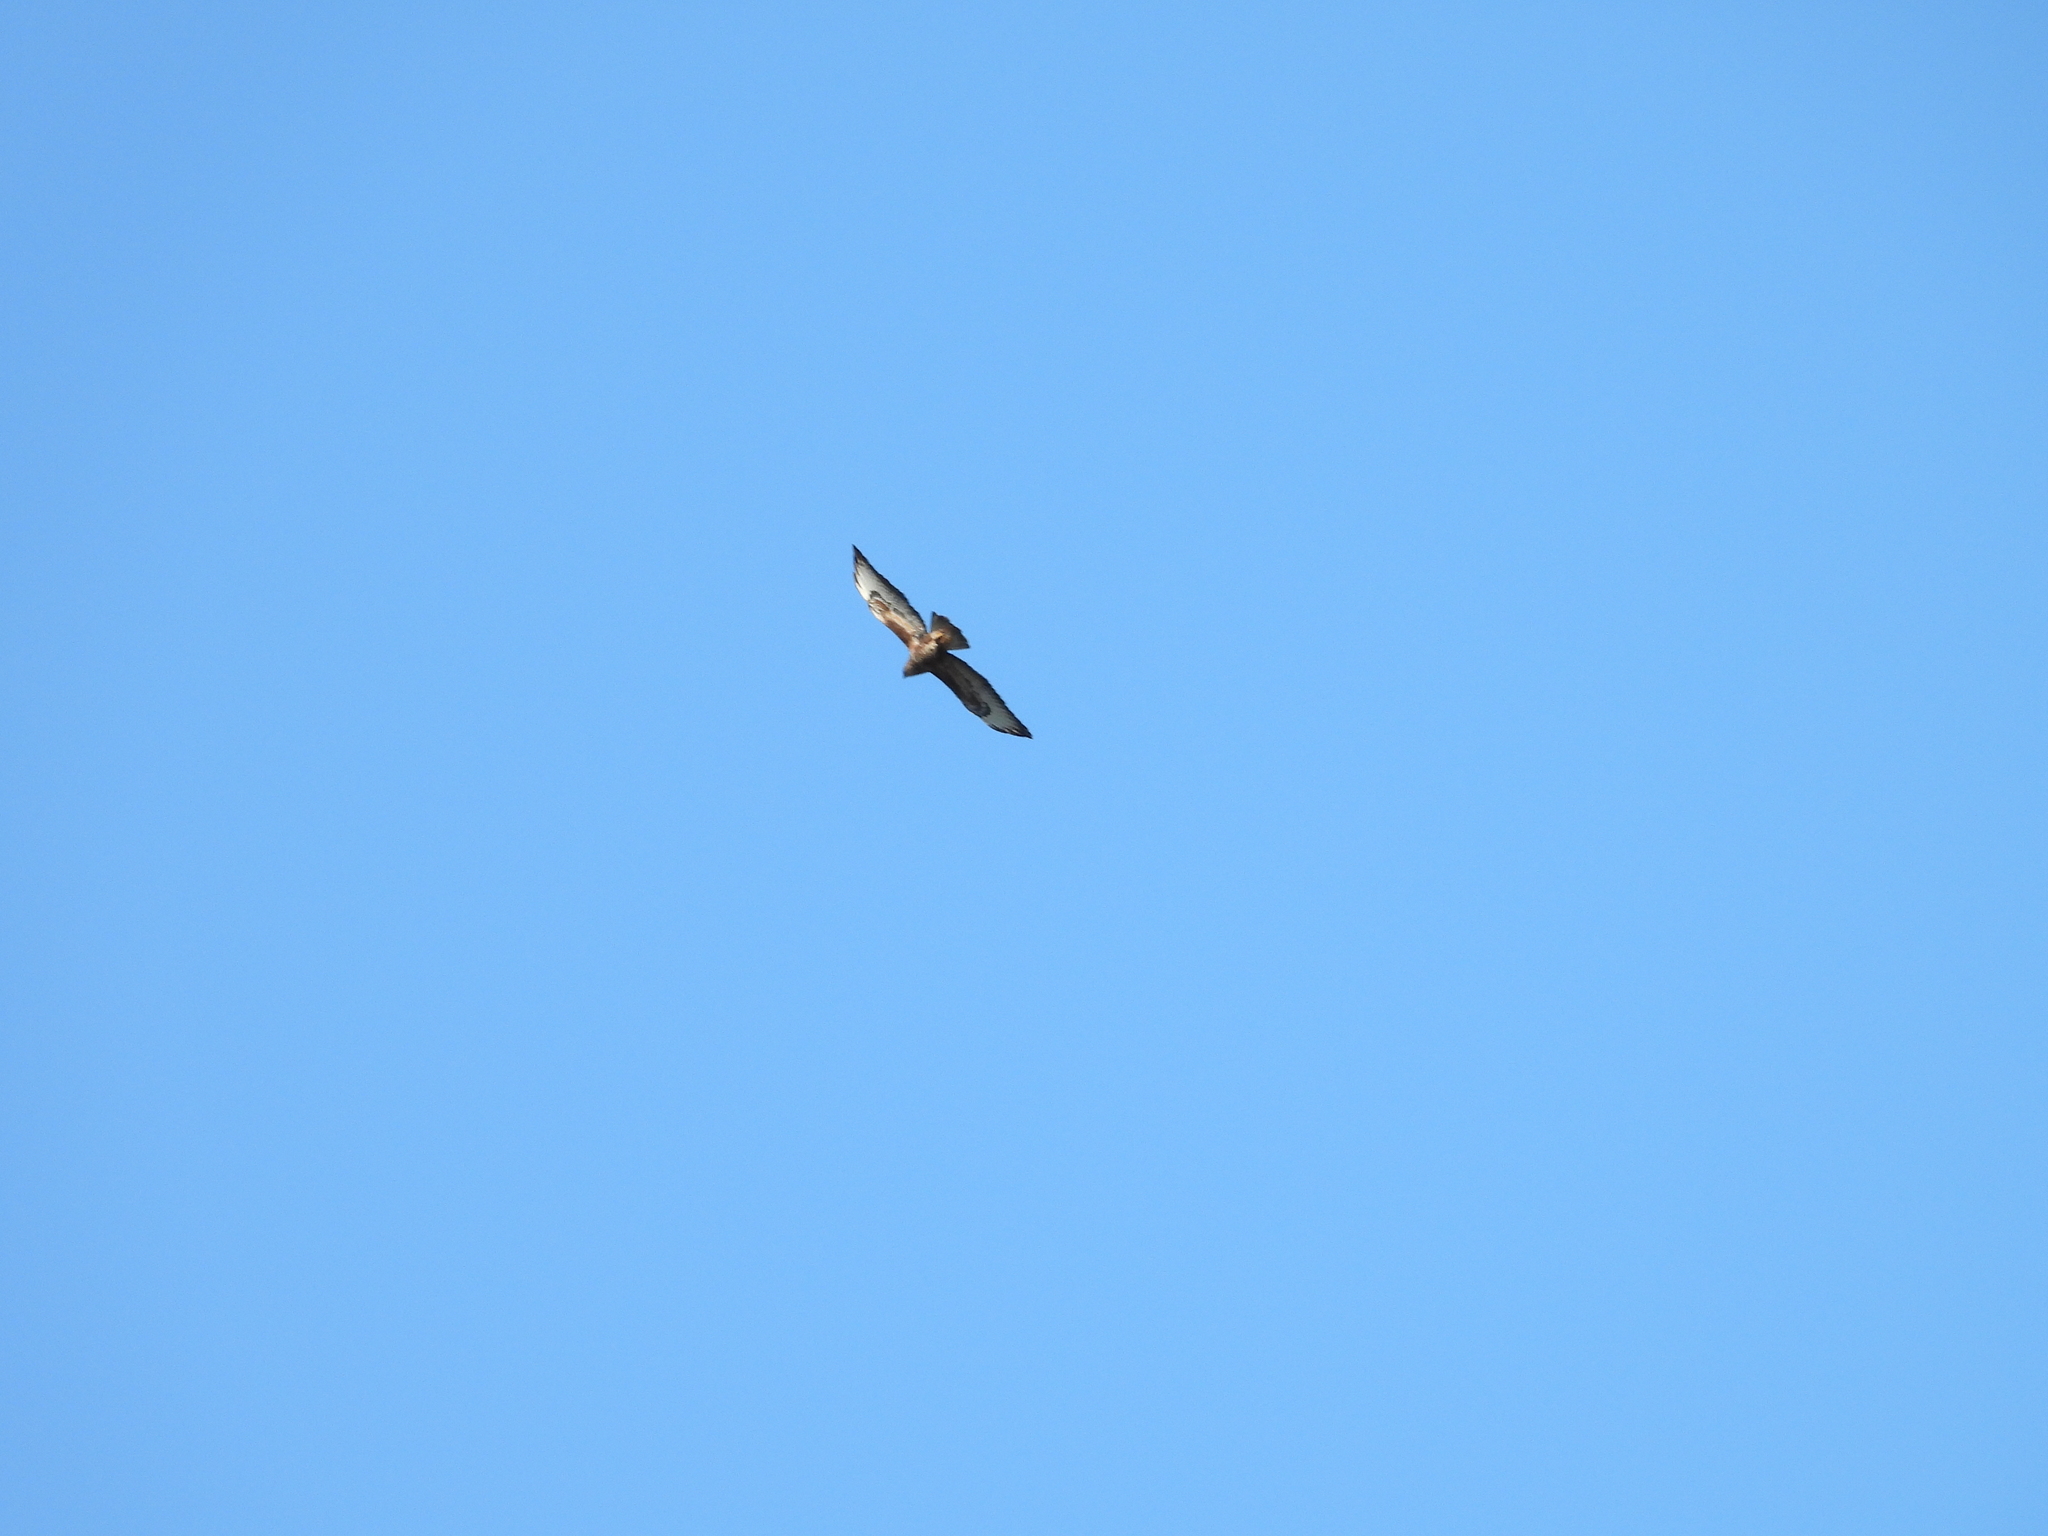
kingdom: Animalia
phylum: Chordata
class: Aves
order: Accipitriformes
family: Accipitridae
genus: Buteo
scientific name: Buteo buteo
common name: Common buzzard
